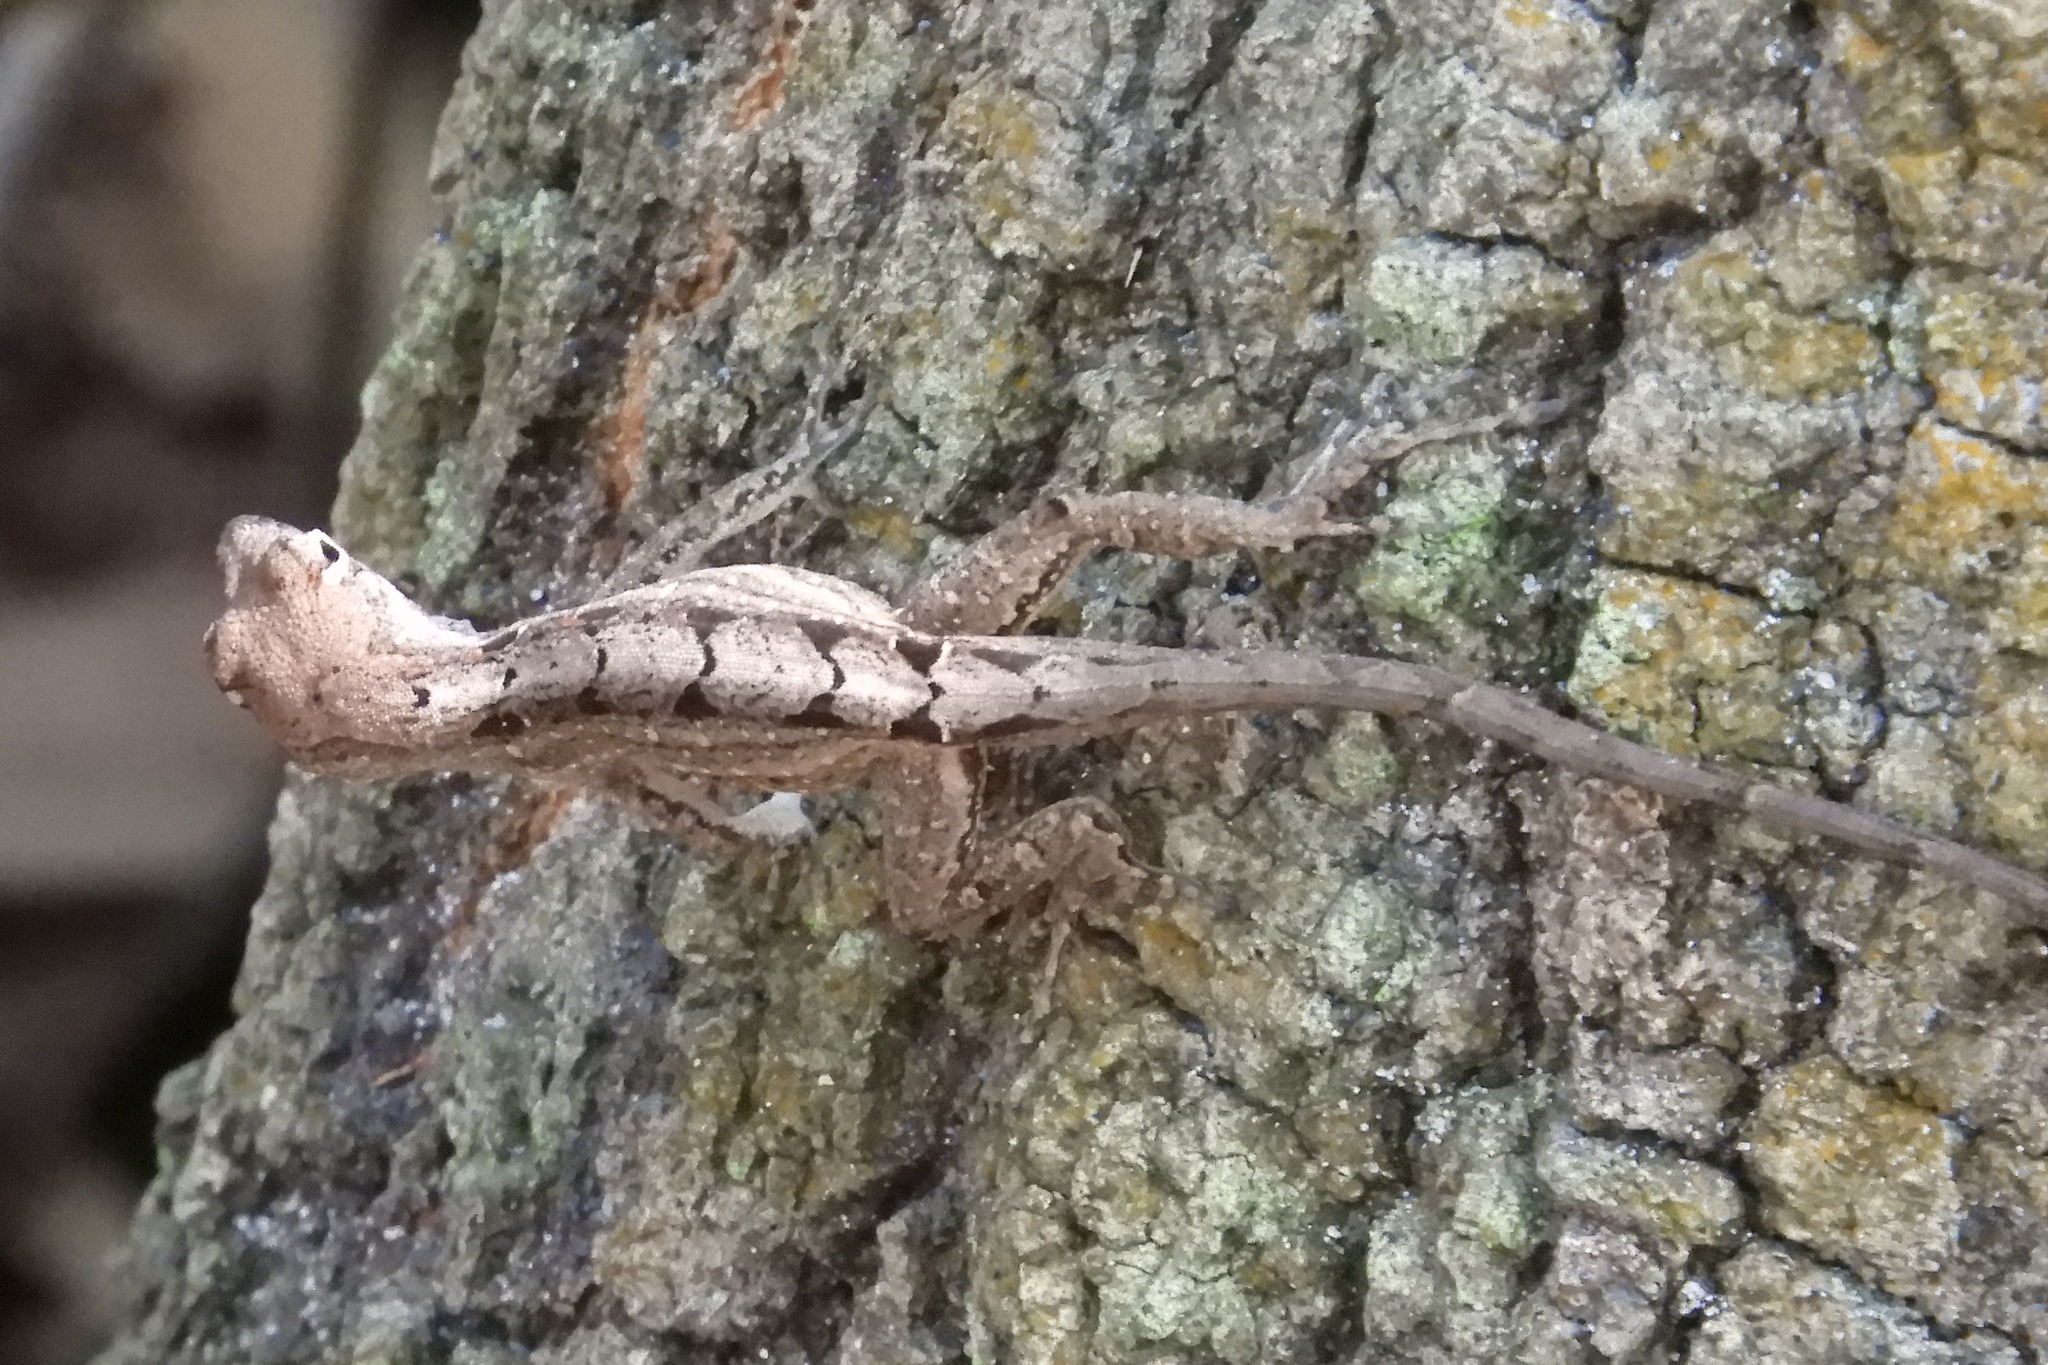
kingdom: Animalia
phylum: Chordata
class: Squamata
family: Dactyloidae
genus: Anolis
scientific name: Anolis sagrei
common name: Brown anole
